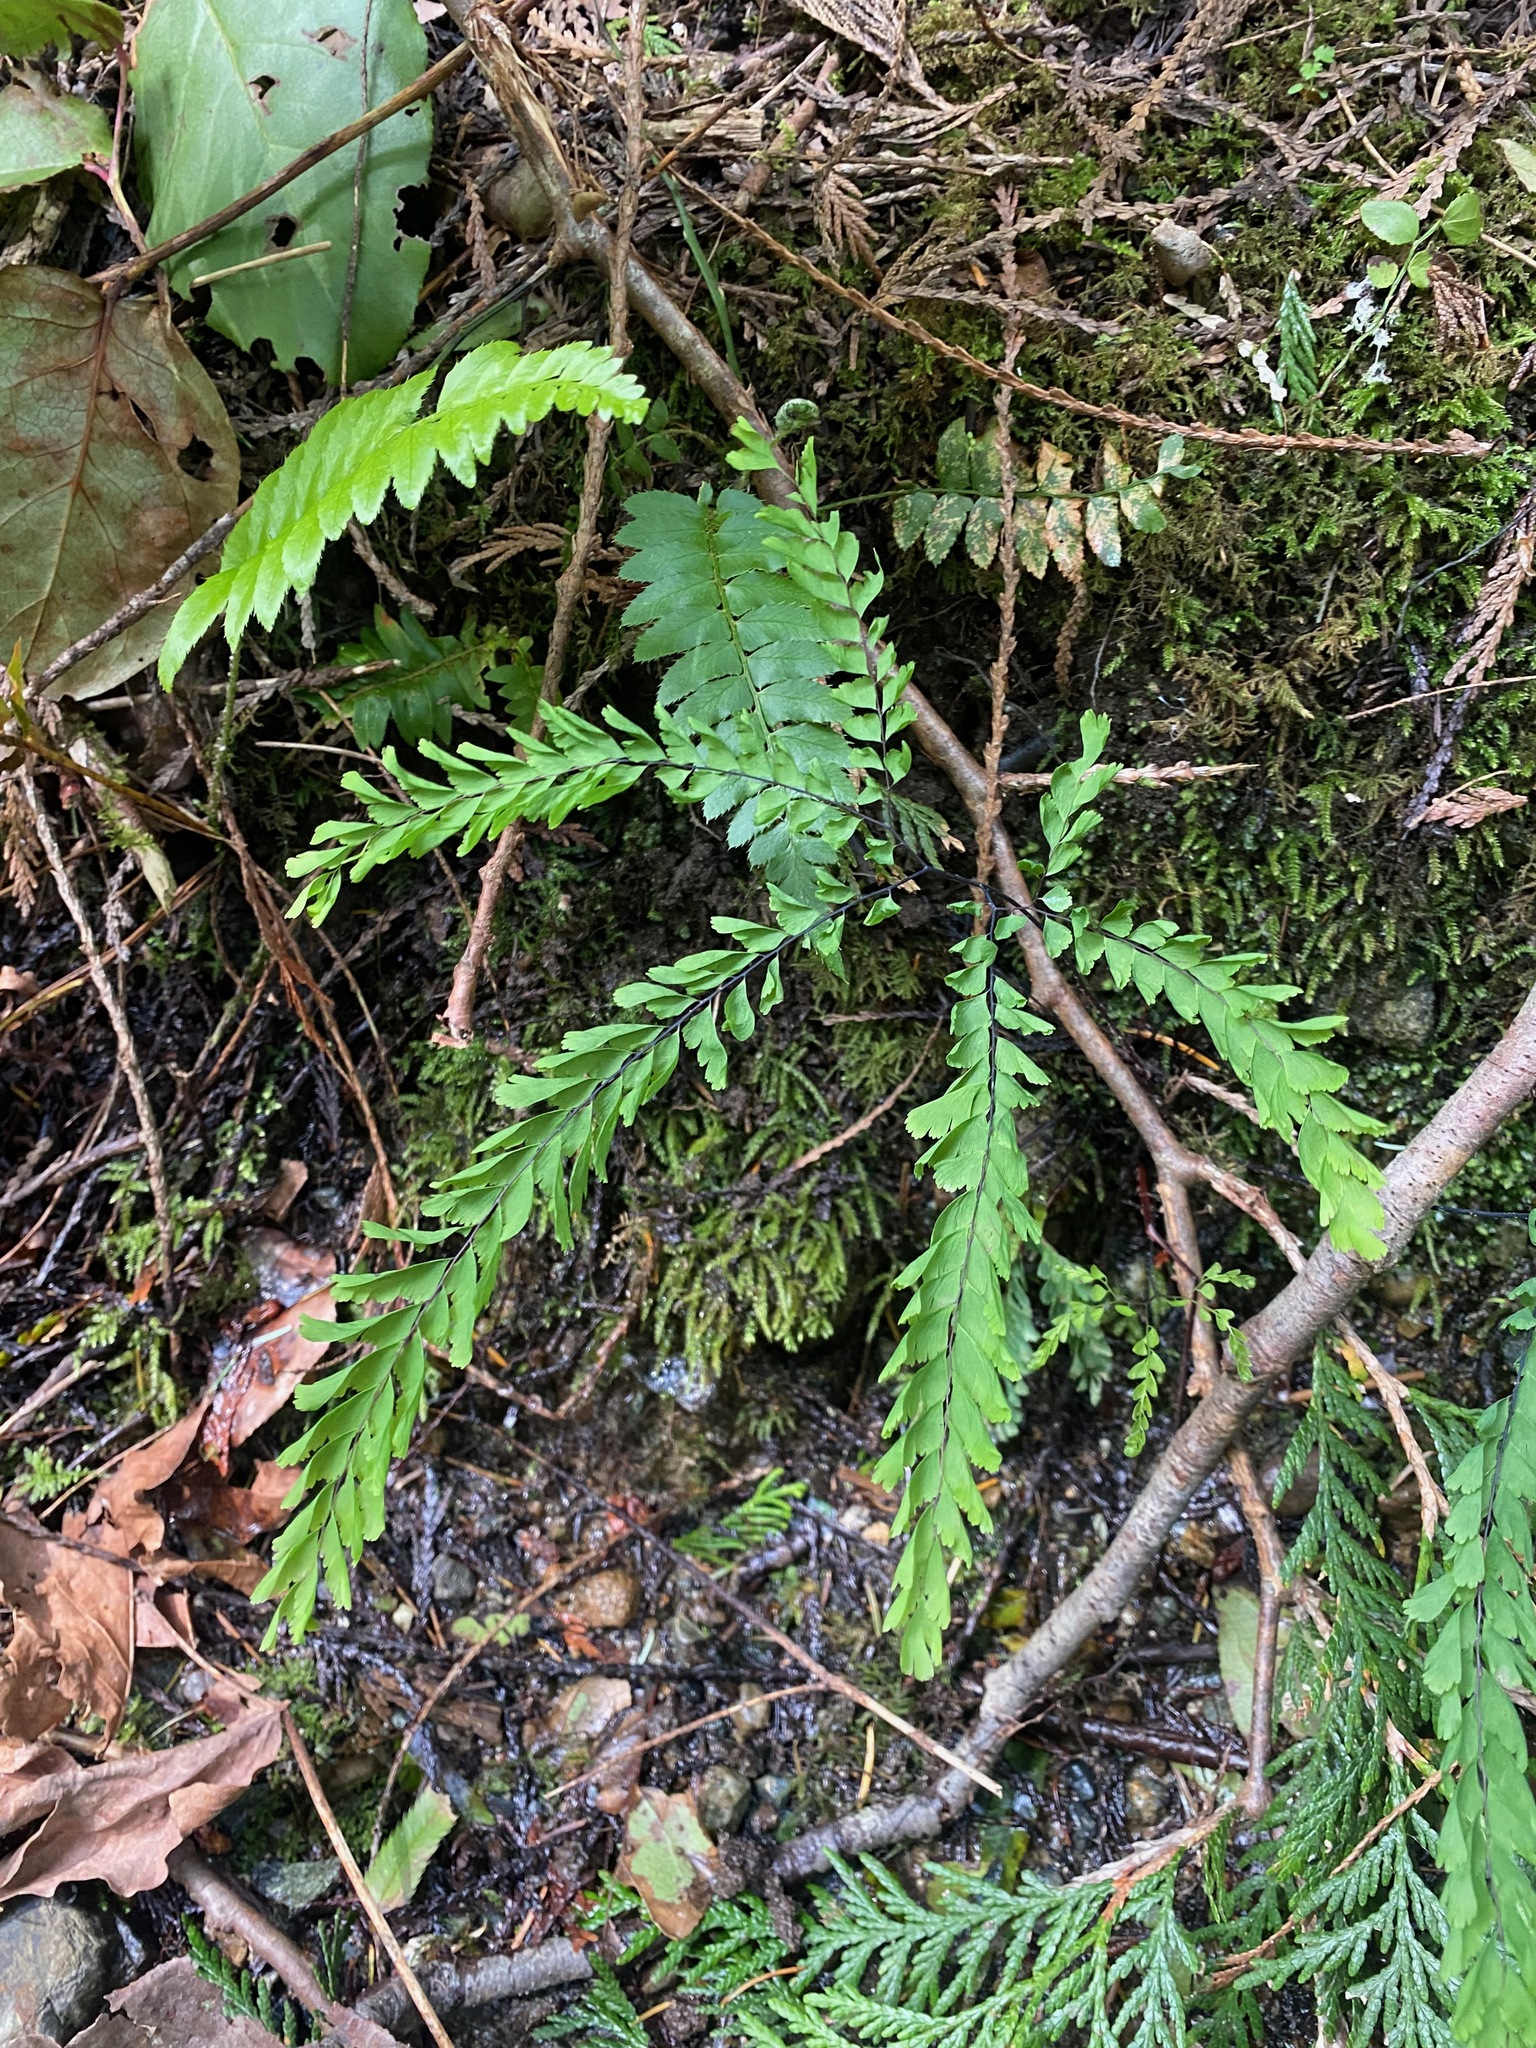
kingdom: Plantae
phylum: Tracheophyta
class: Polypodiopsida
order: Polypodiales
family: Pteridaceae
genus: Adiantum
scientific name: Adiantum aleuticum
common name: Aleutian maidenhair fern
